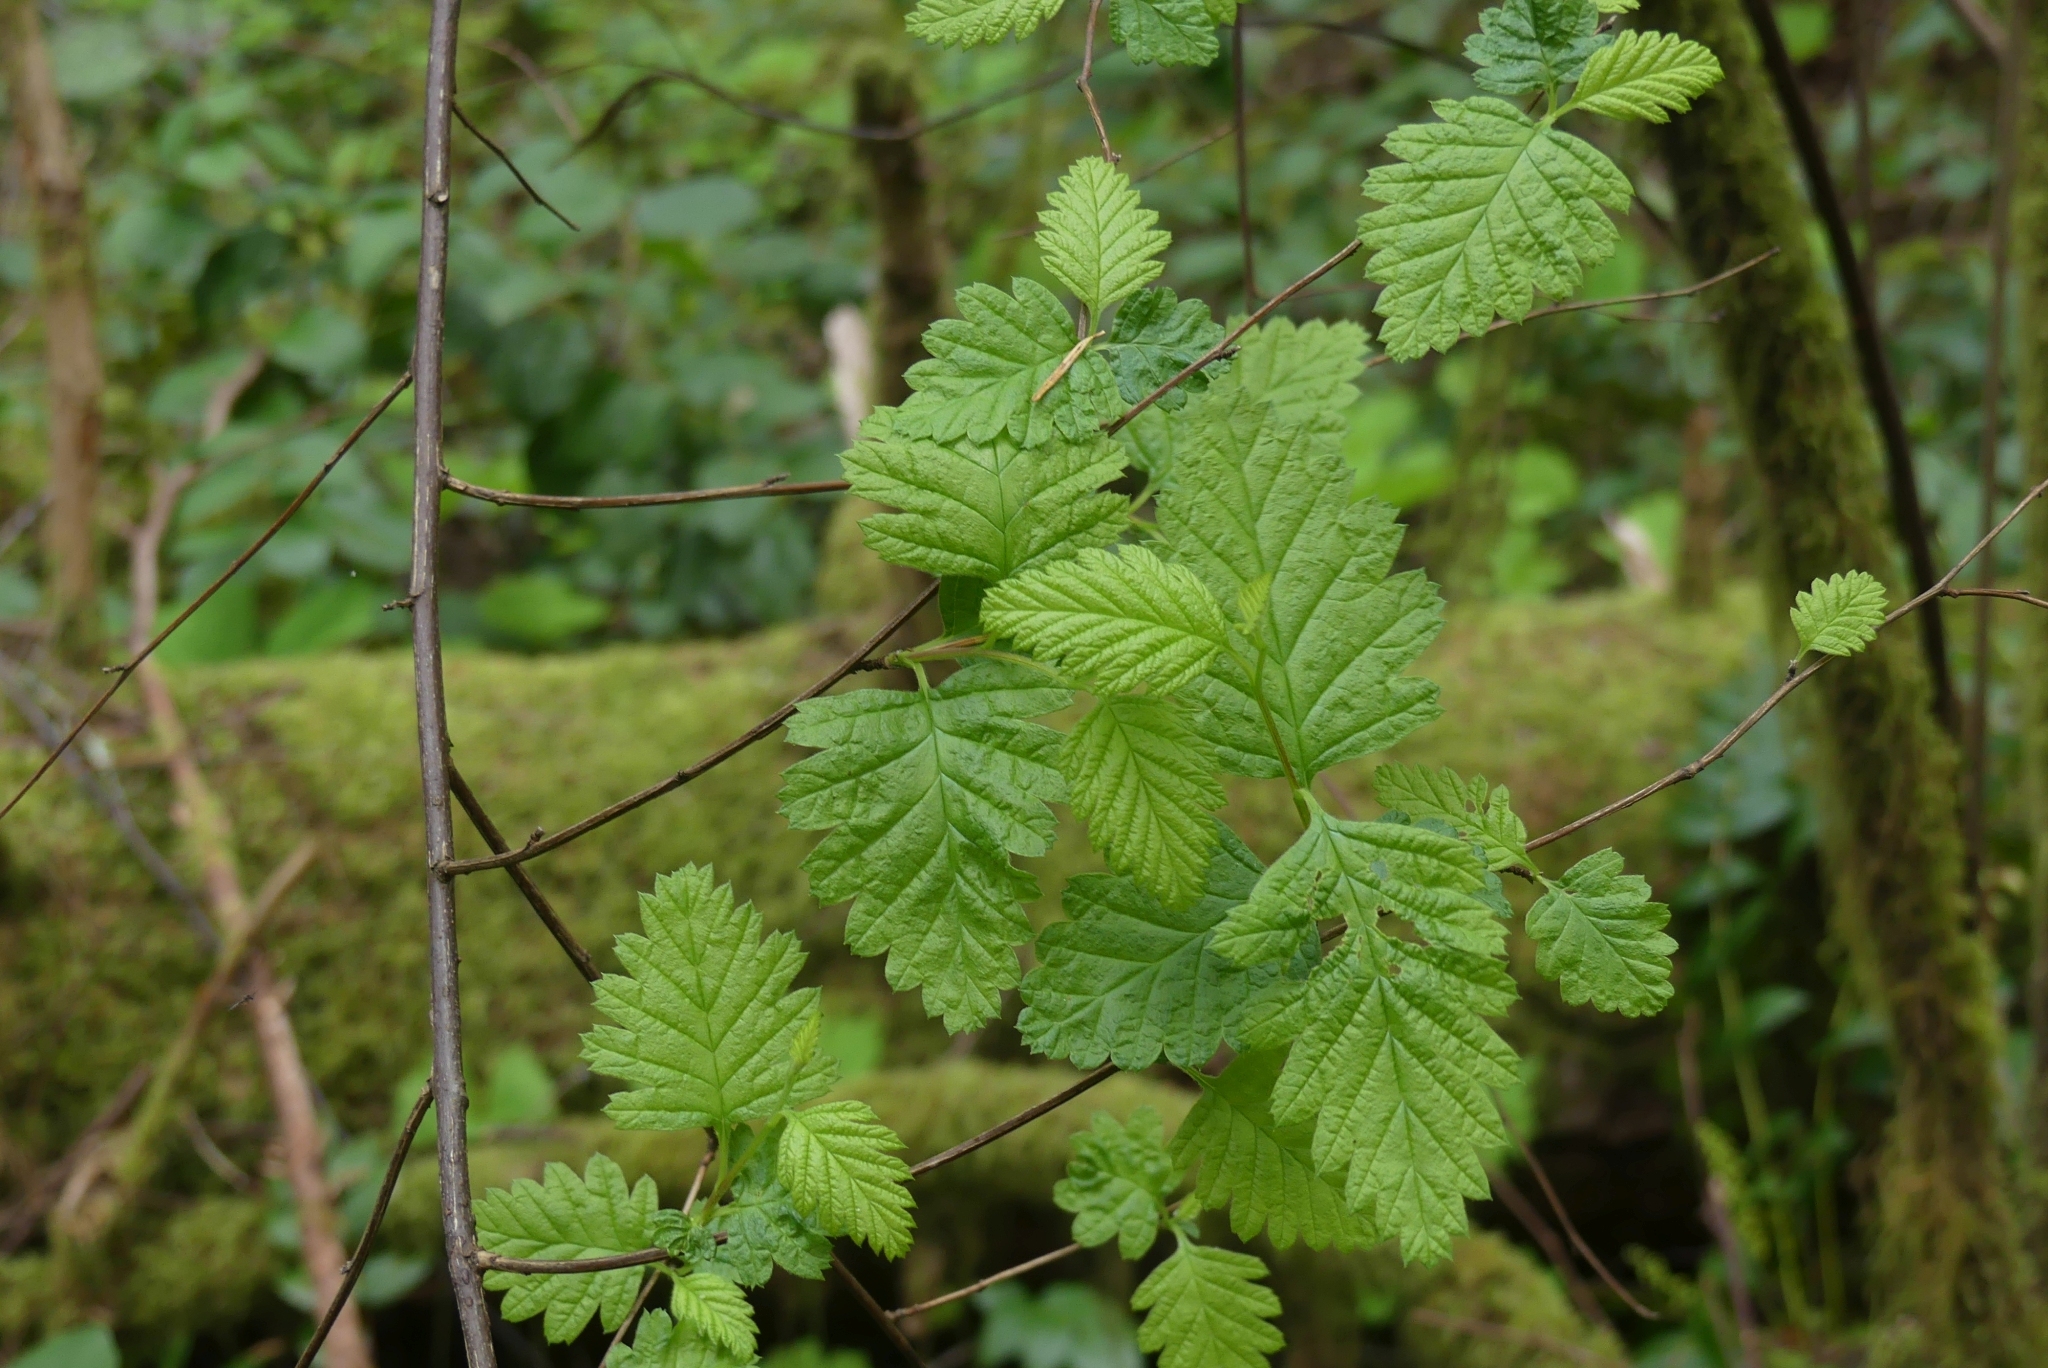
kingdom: Plantae
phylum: Tracheophyta
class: Magnoliopsida
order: Rosales
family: Rosaceae
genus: Holodiscus
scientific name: Holodiscus discolor
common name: Oceanspray
